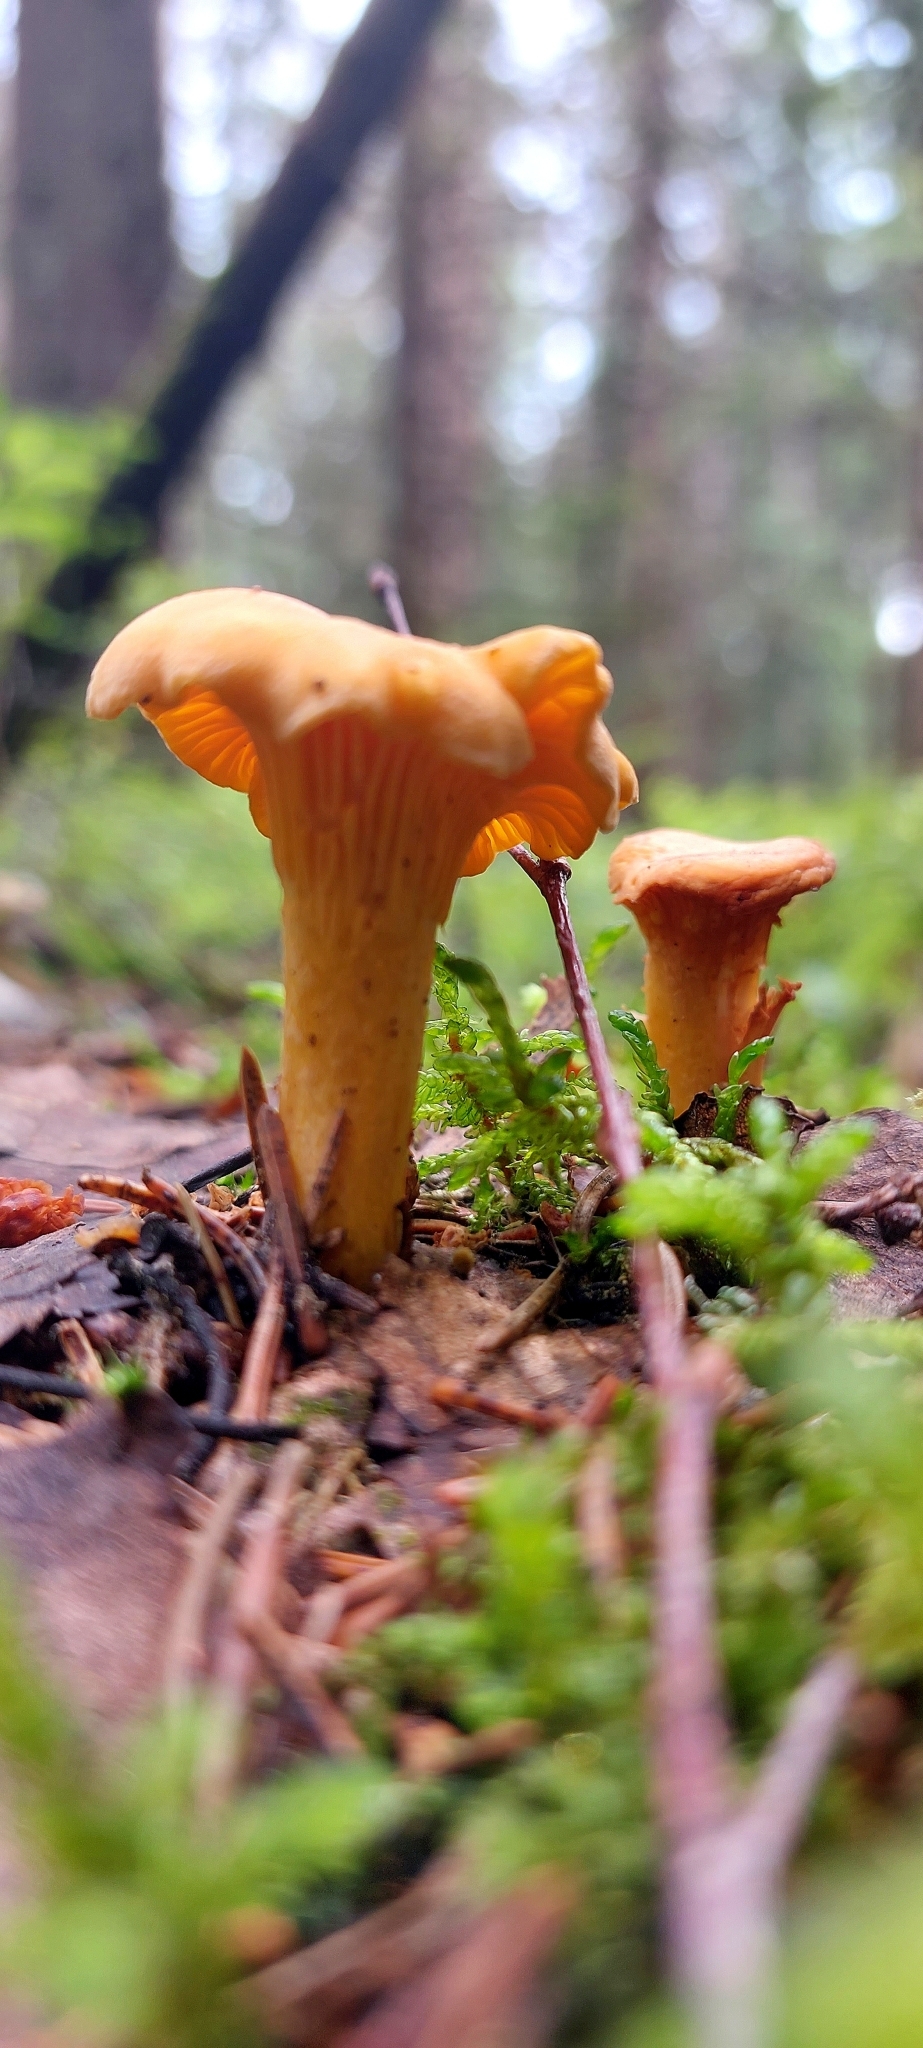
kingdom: Fungi
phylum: Basidiomycota
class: Agaricomycetes
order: Cantharellales
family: Hydnaceae
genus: Cantharellus
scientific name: Cantharellus cibarius
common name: Chanterelle
